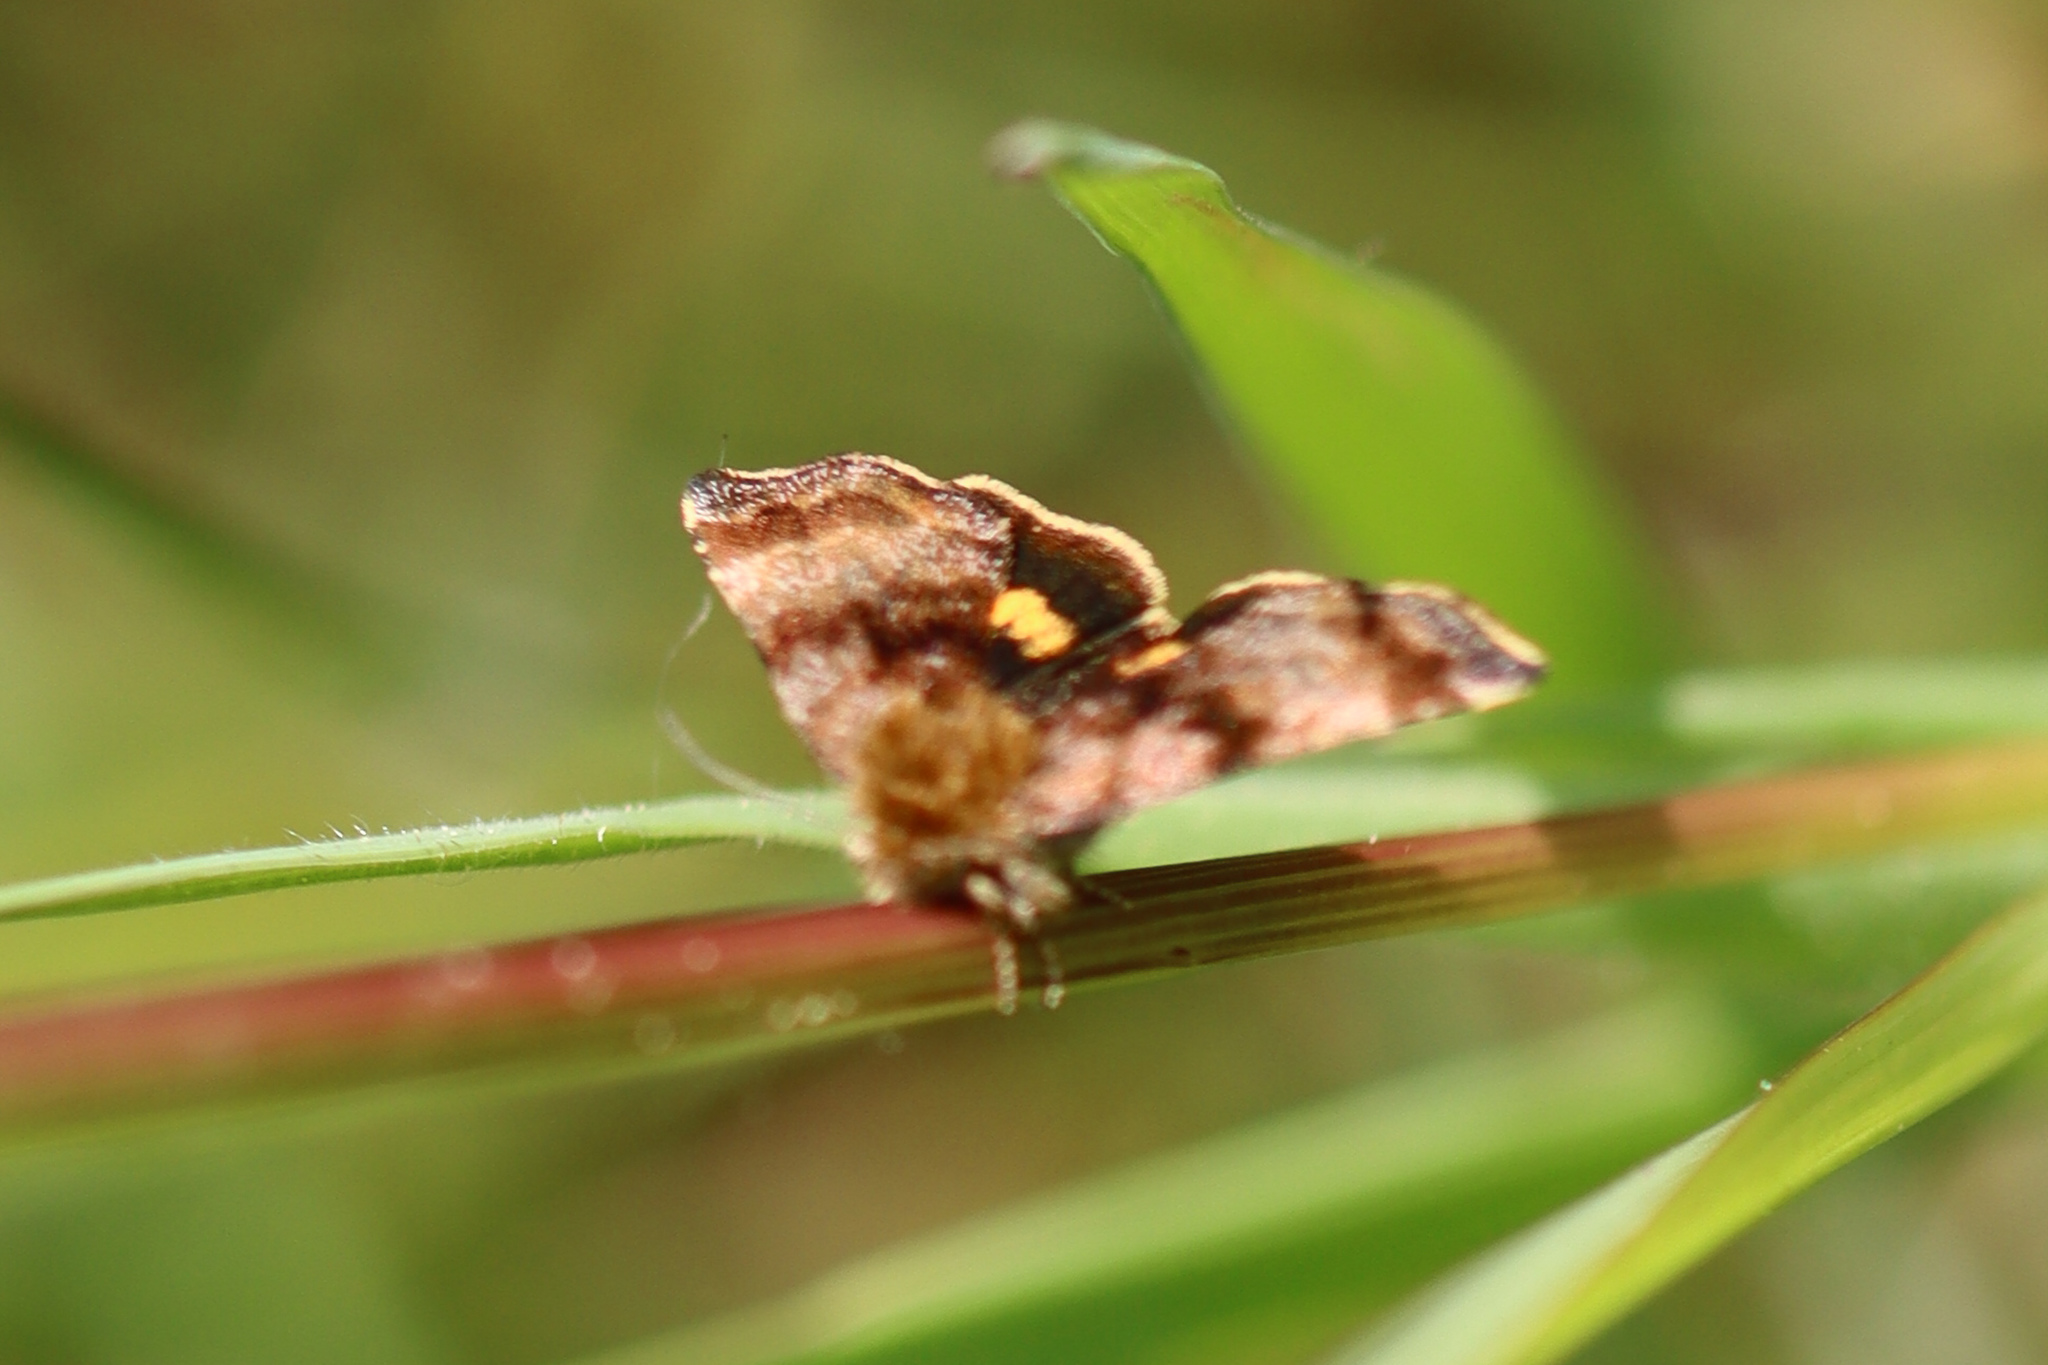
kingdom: Animalia
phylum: Arthropoda
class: Insecta
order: Lepidoptera
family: Noctuidae
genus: Panemeria
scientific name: Panemeria tenebrata
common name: Small yellow underwing
